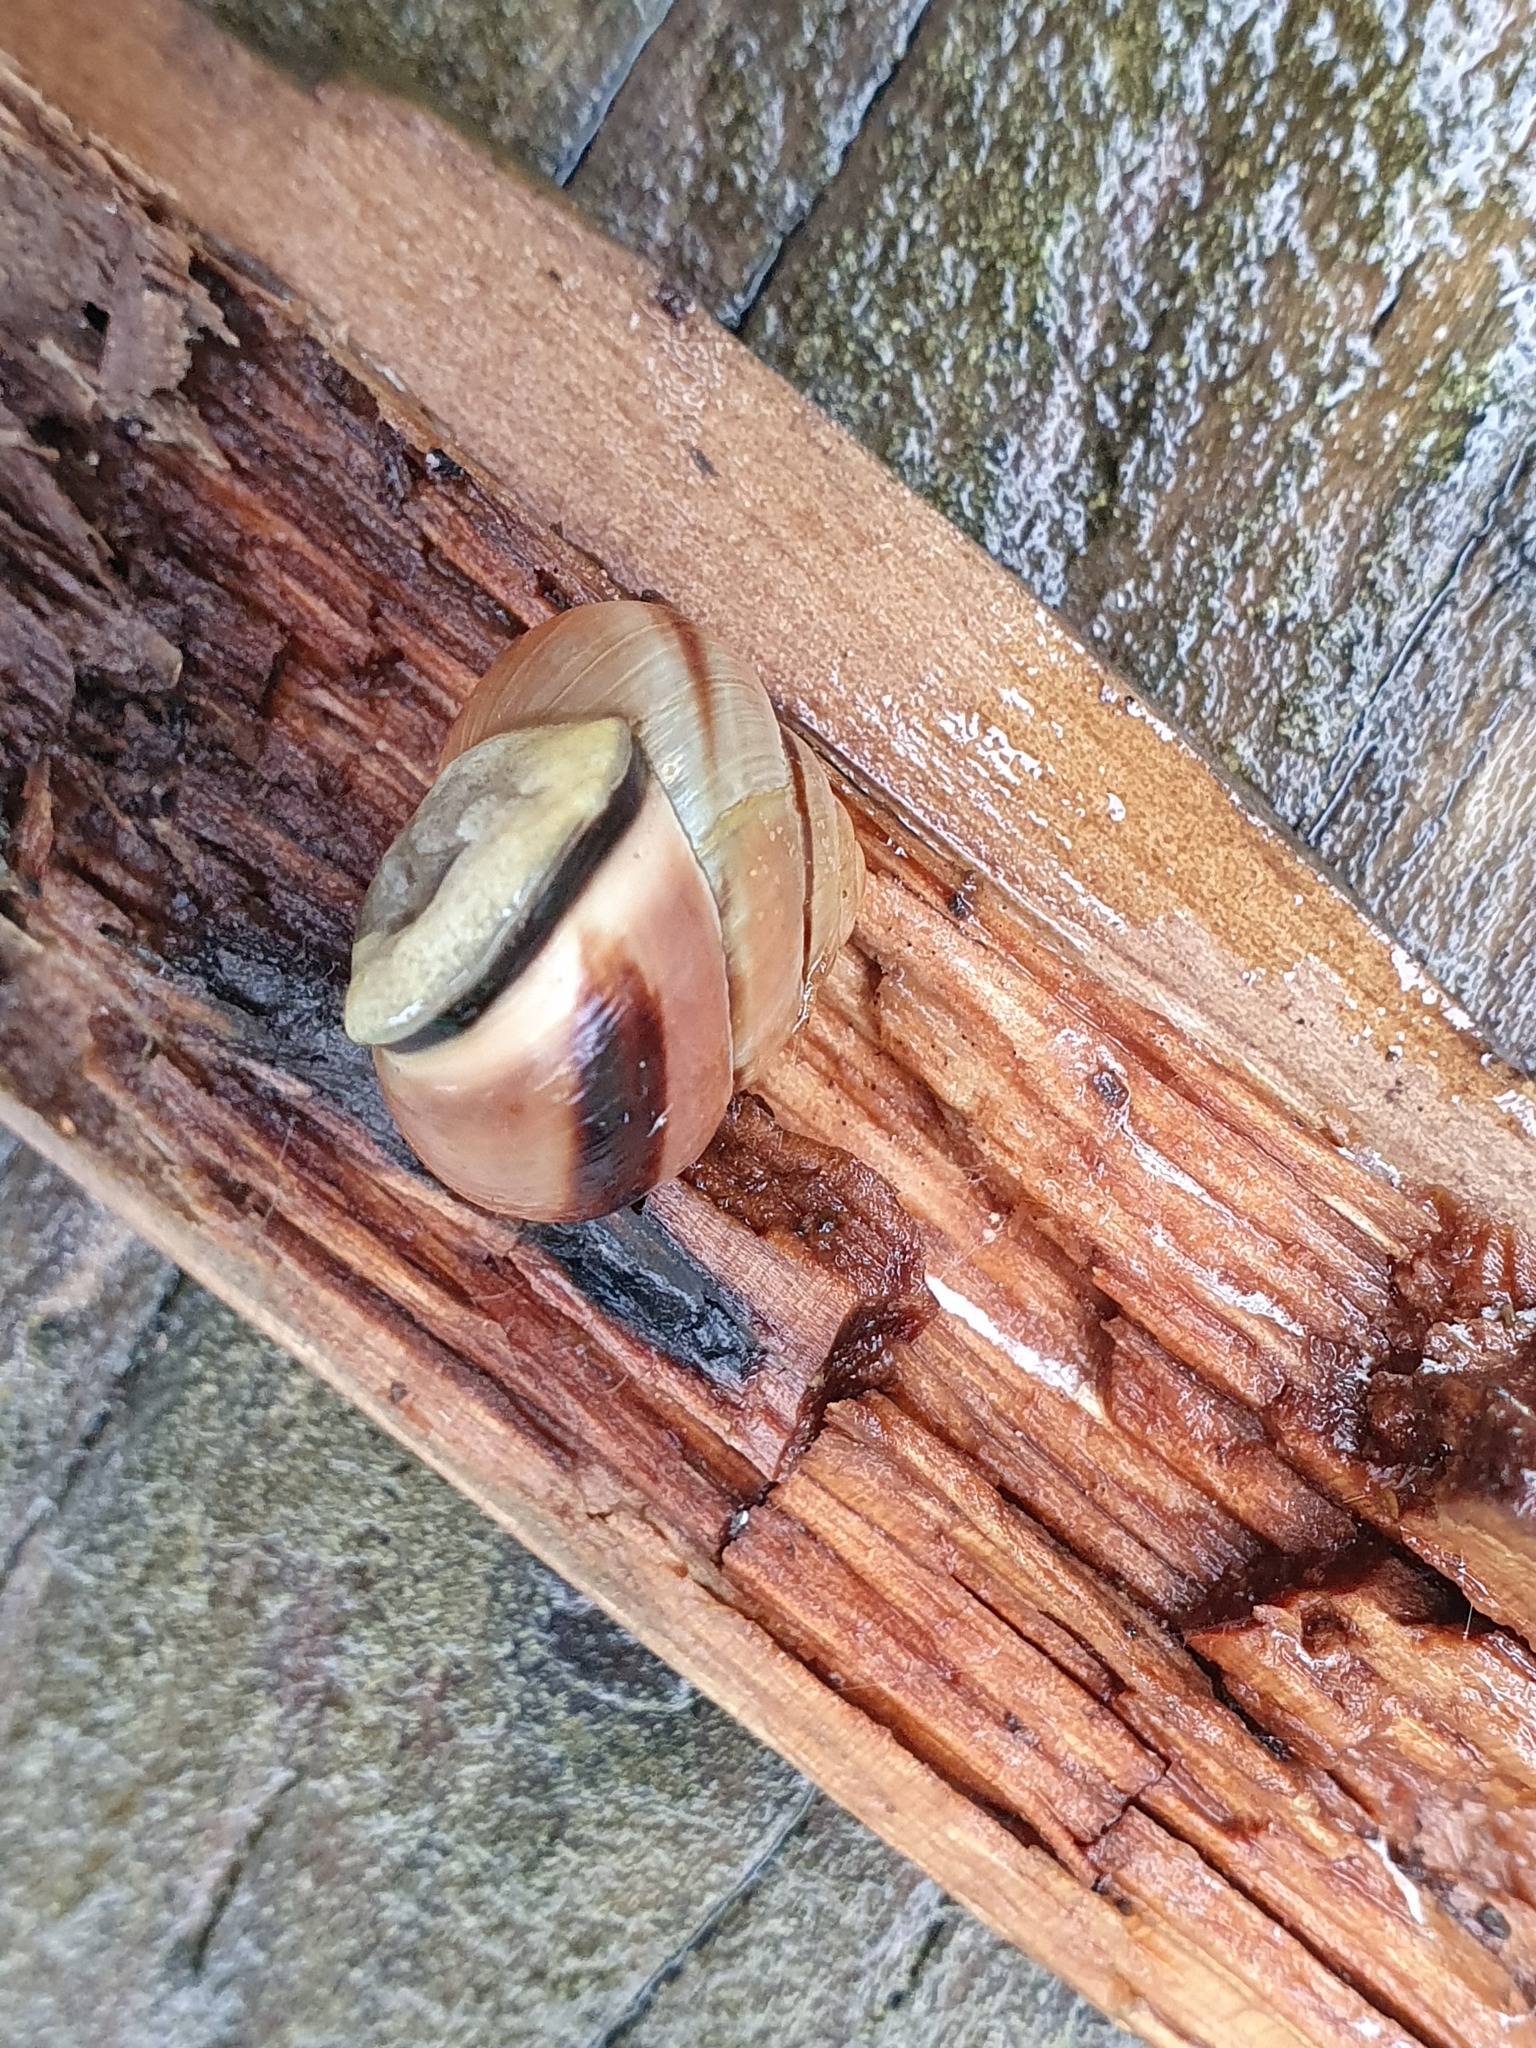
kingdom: Animalia
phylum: Mollusca
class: Gastropoda
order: Stylommatophora
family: Helicidae
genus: Cepaea
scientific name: Cepaea nemoralis
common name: Grovesnail
